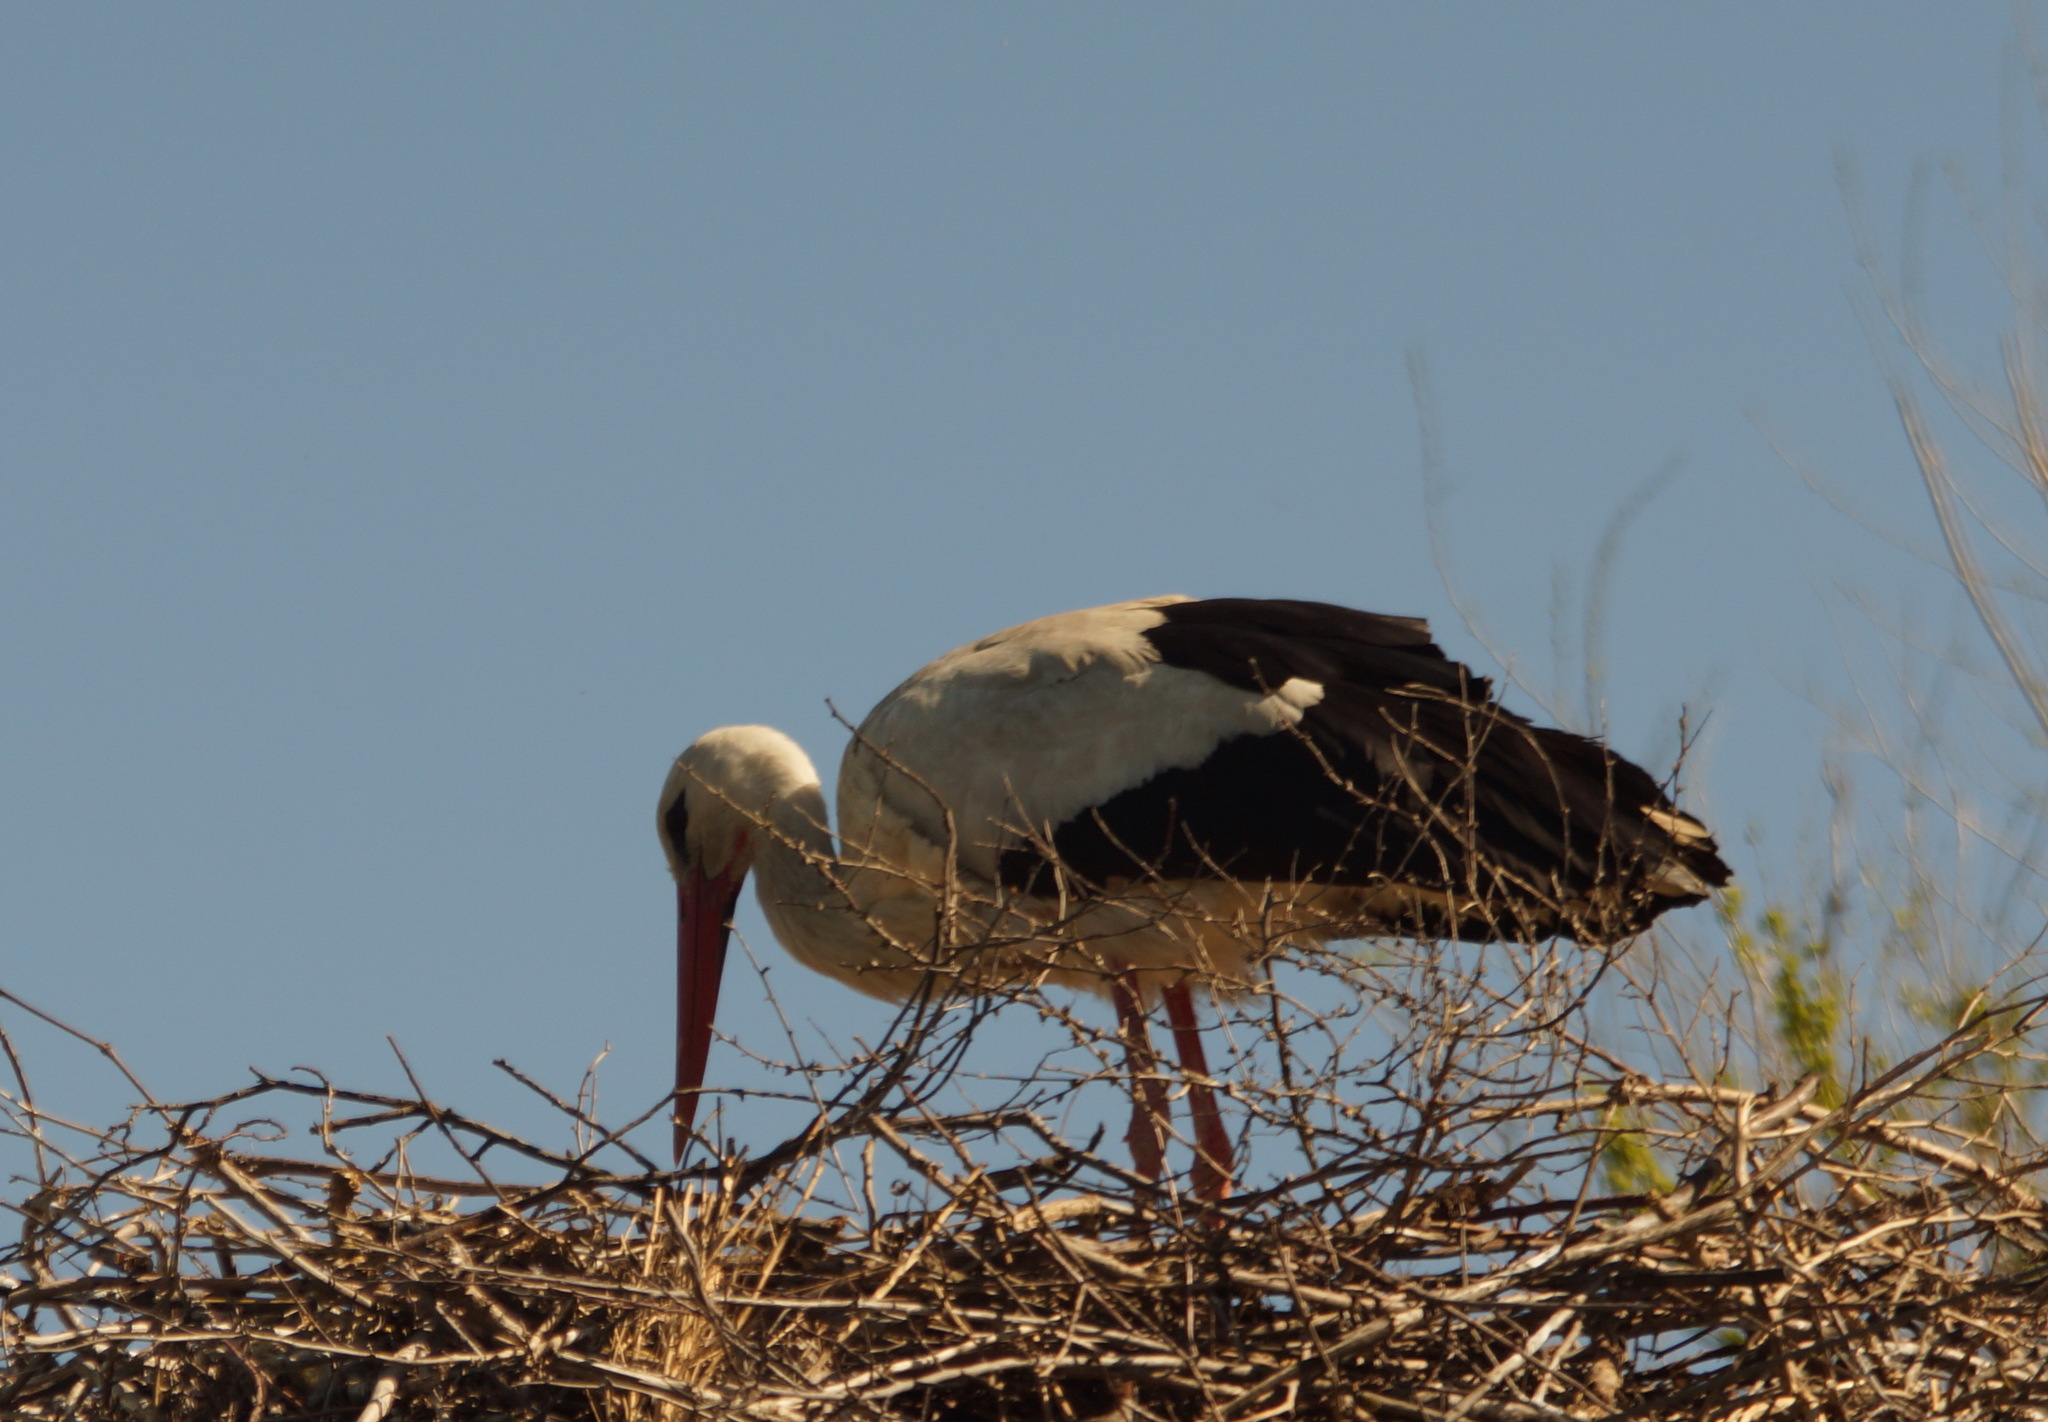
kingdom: Animalia
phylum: Chordata
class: Aves
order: Ciconiiformes
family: Ciconiidae
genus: Ciconia
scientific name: Ciconia ciconia
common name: White stork
